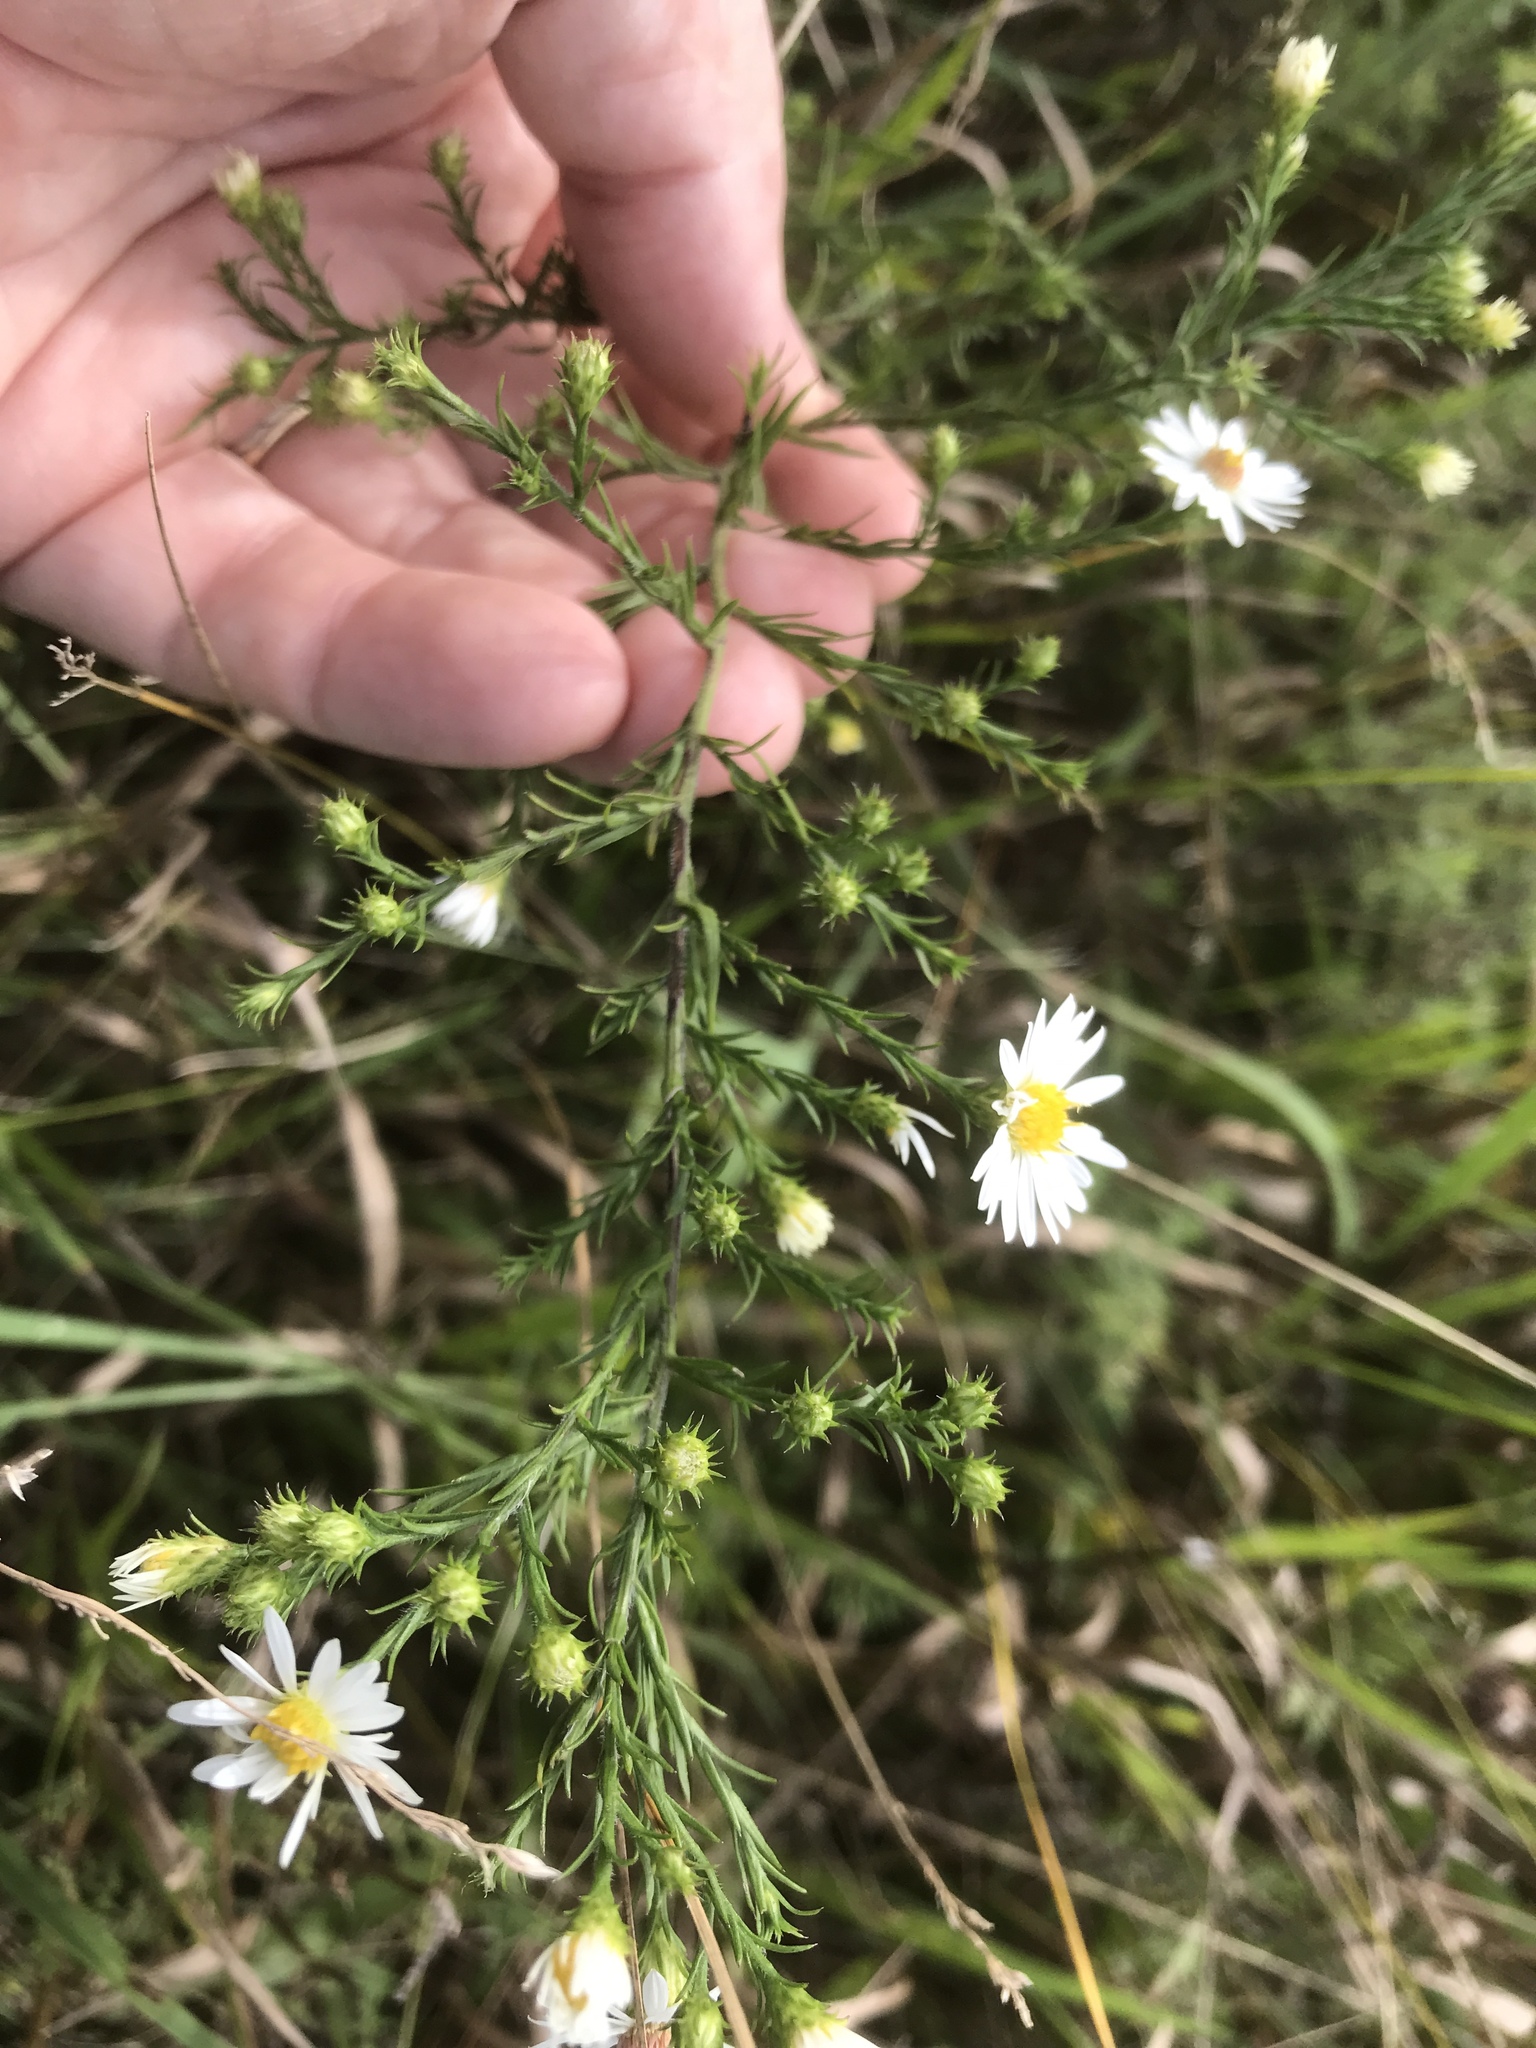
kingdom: Plantae
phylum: Tracheophyta
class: Magnoliopsida
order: Asterales
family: Asteraceae
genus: Symphyotrichum
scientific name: Symphyotrichum pilosum
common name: Awl aster
